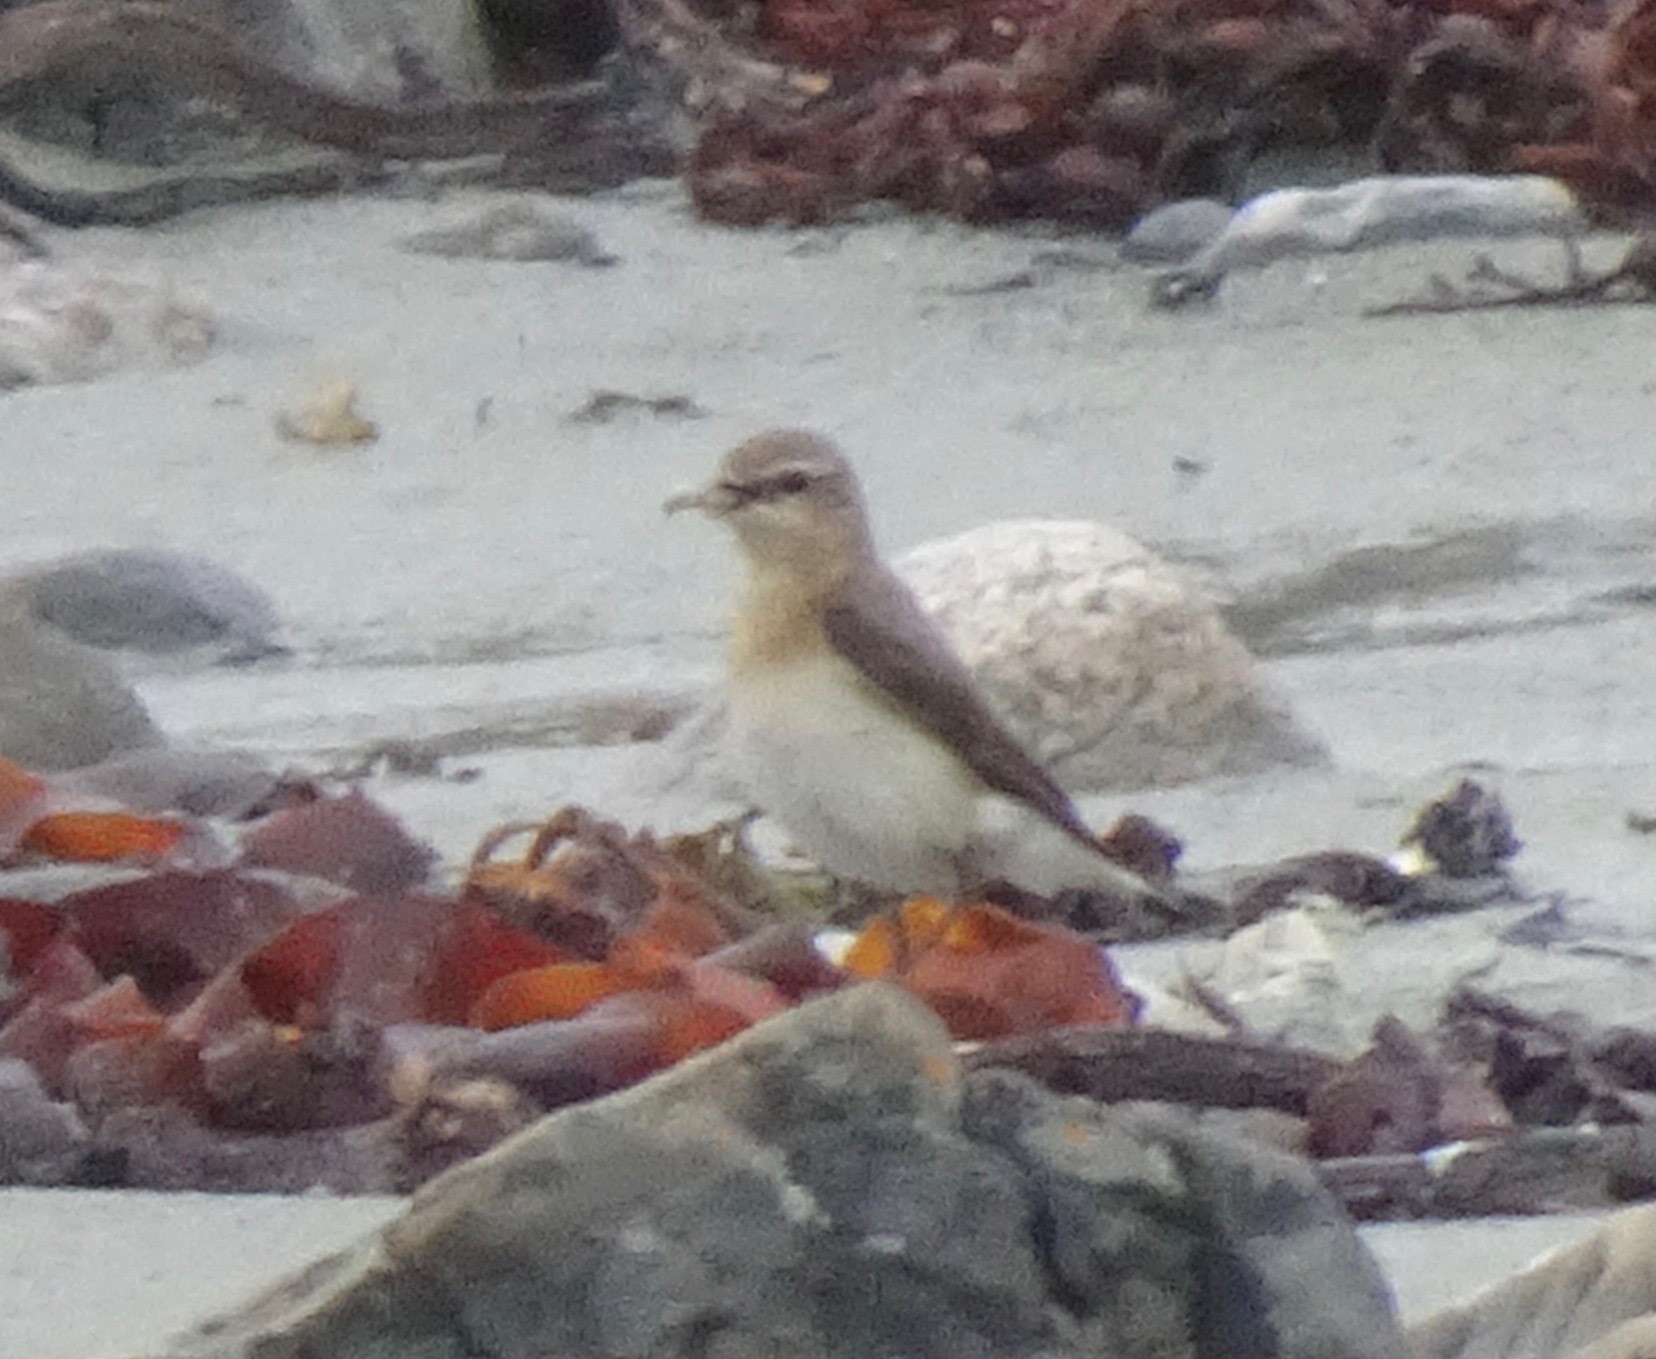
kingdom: Animalia
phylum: Chordata
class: Aves
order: Passeriformes
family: Muscicapidae
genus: Oenanthe
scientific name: Oenanthe oenanthe
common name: Northern wheatear
